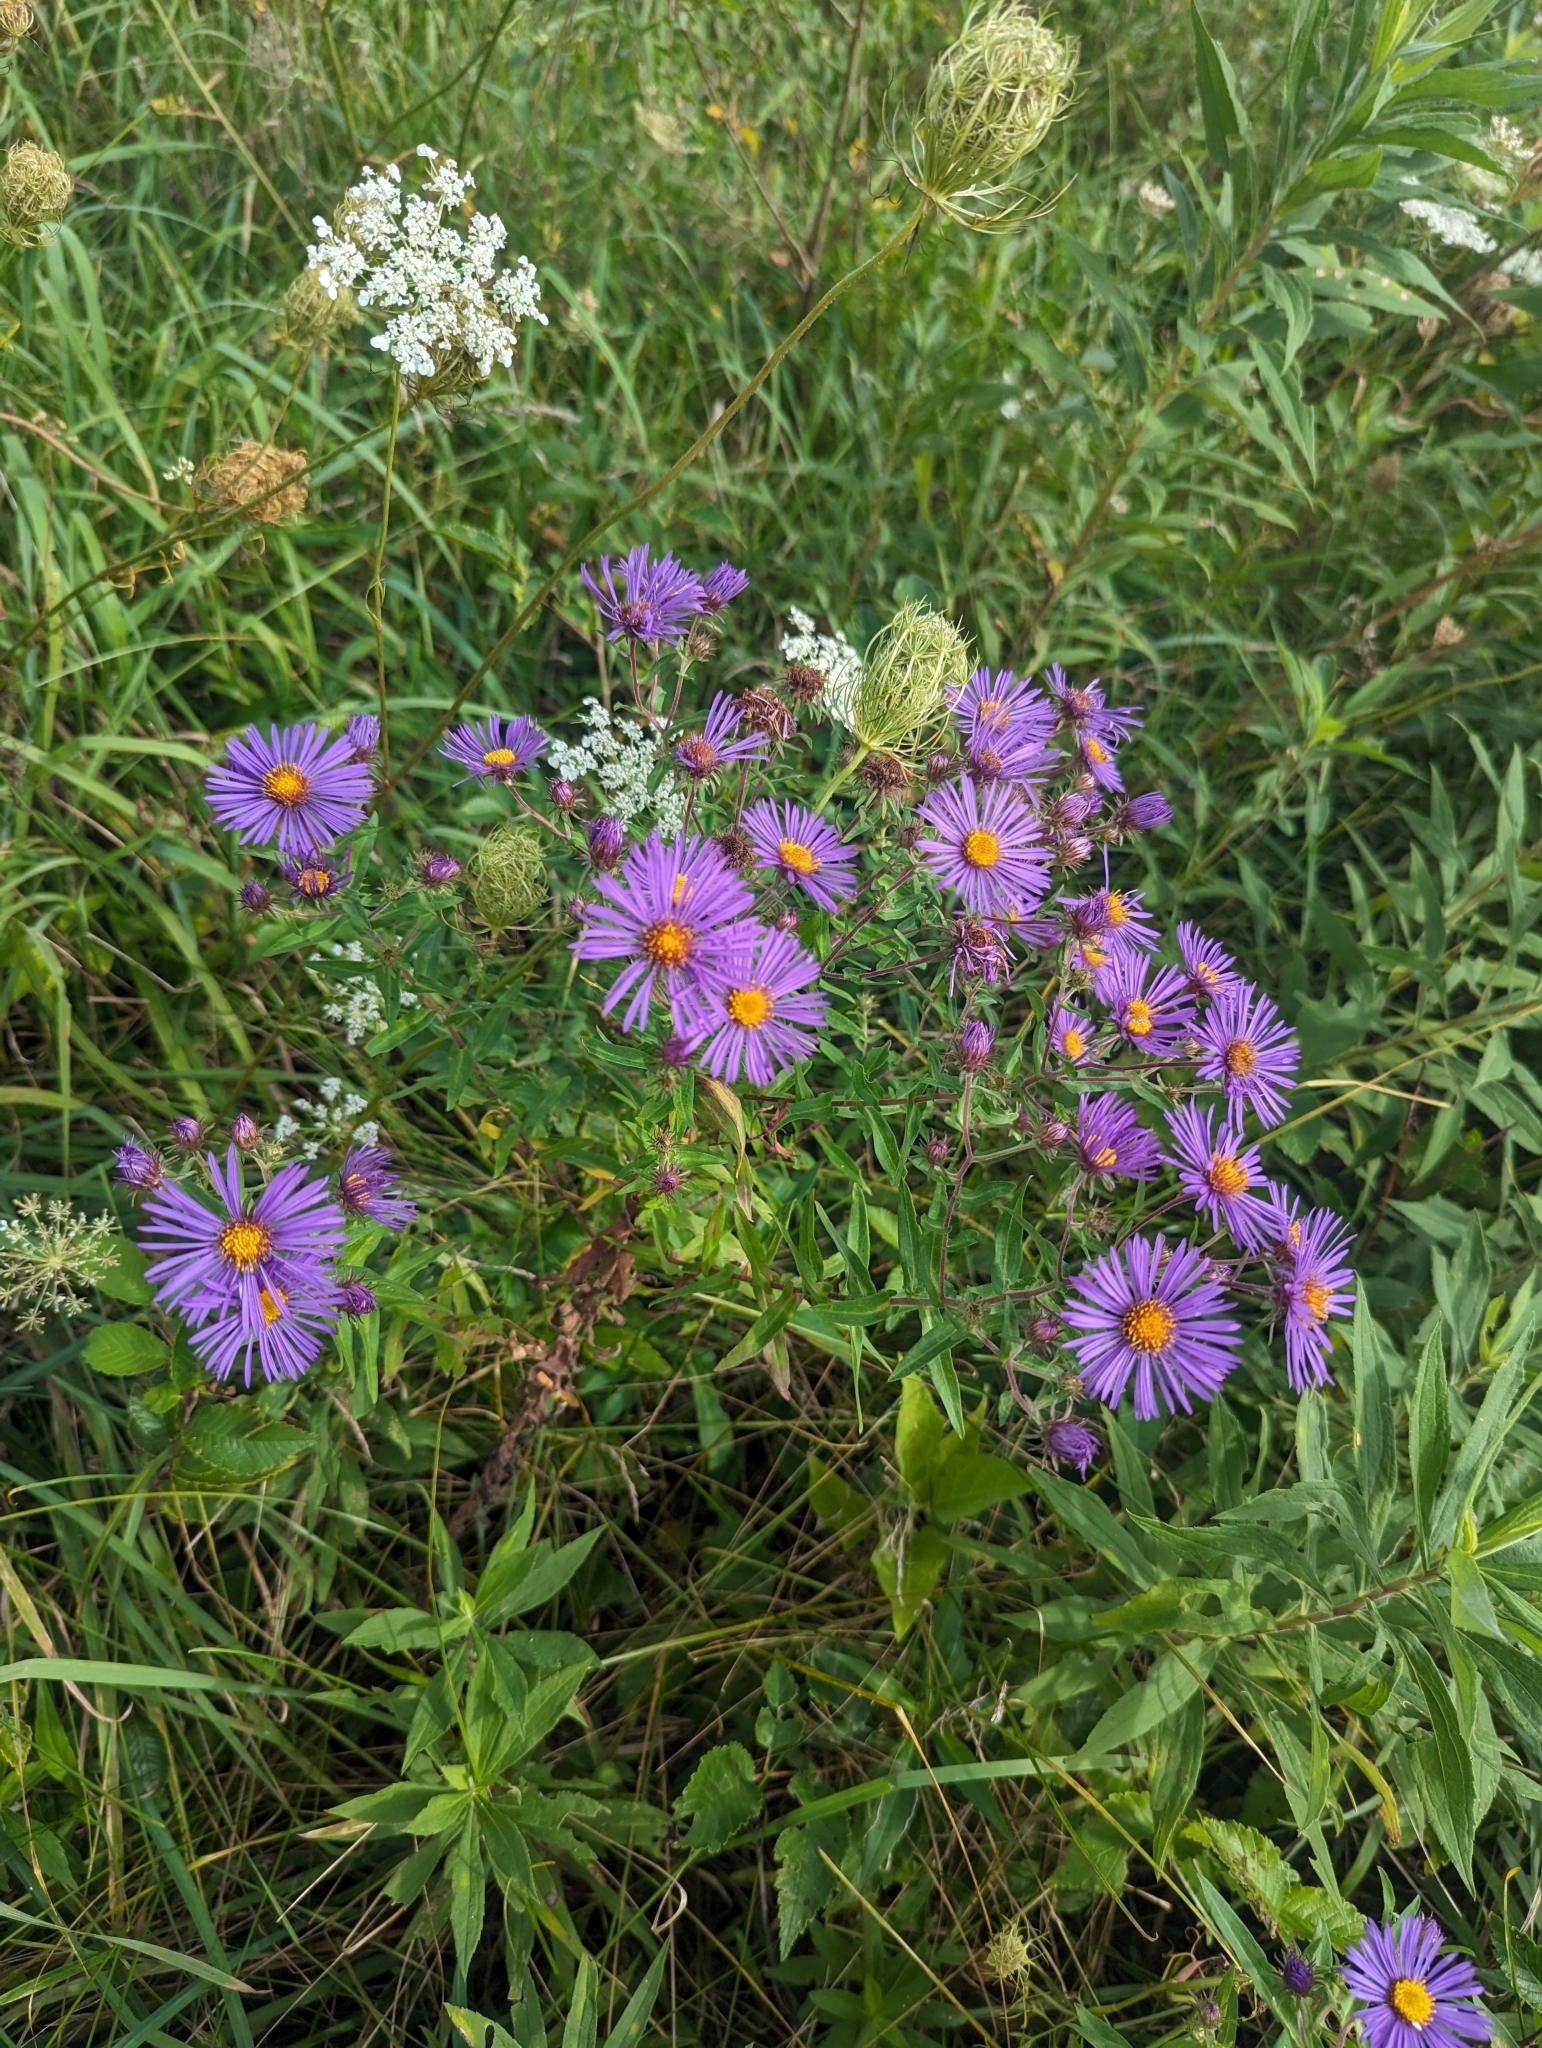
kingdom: Plantae
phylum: Tracheophyta
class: Magnoliopsida
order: Asterales
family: Asteraceae
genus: Symphyotrichum
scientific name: Symphyotrichum novae-angliae
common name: Michaelmas daisy
